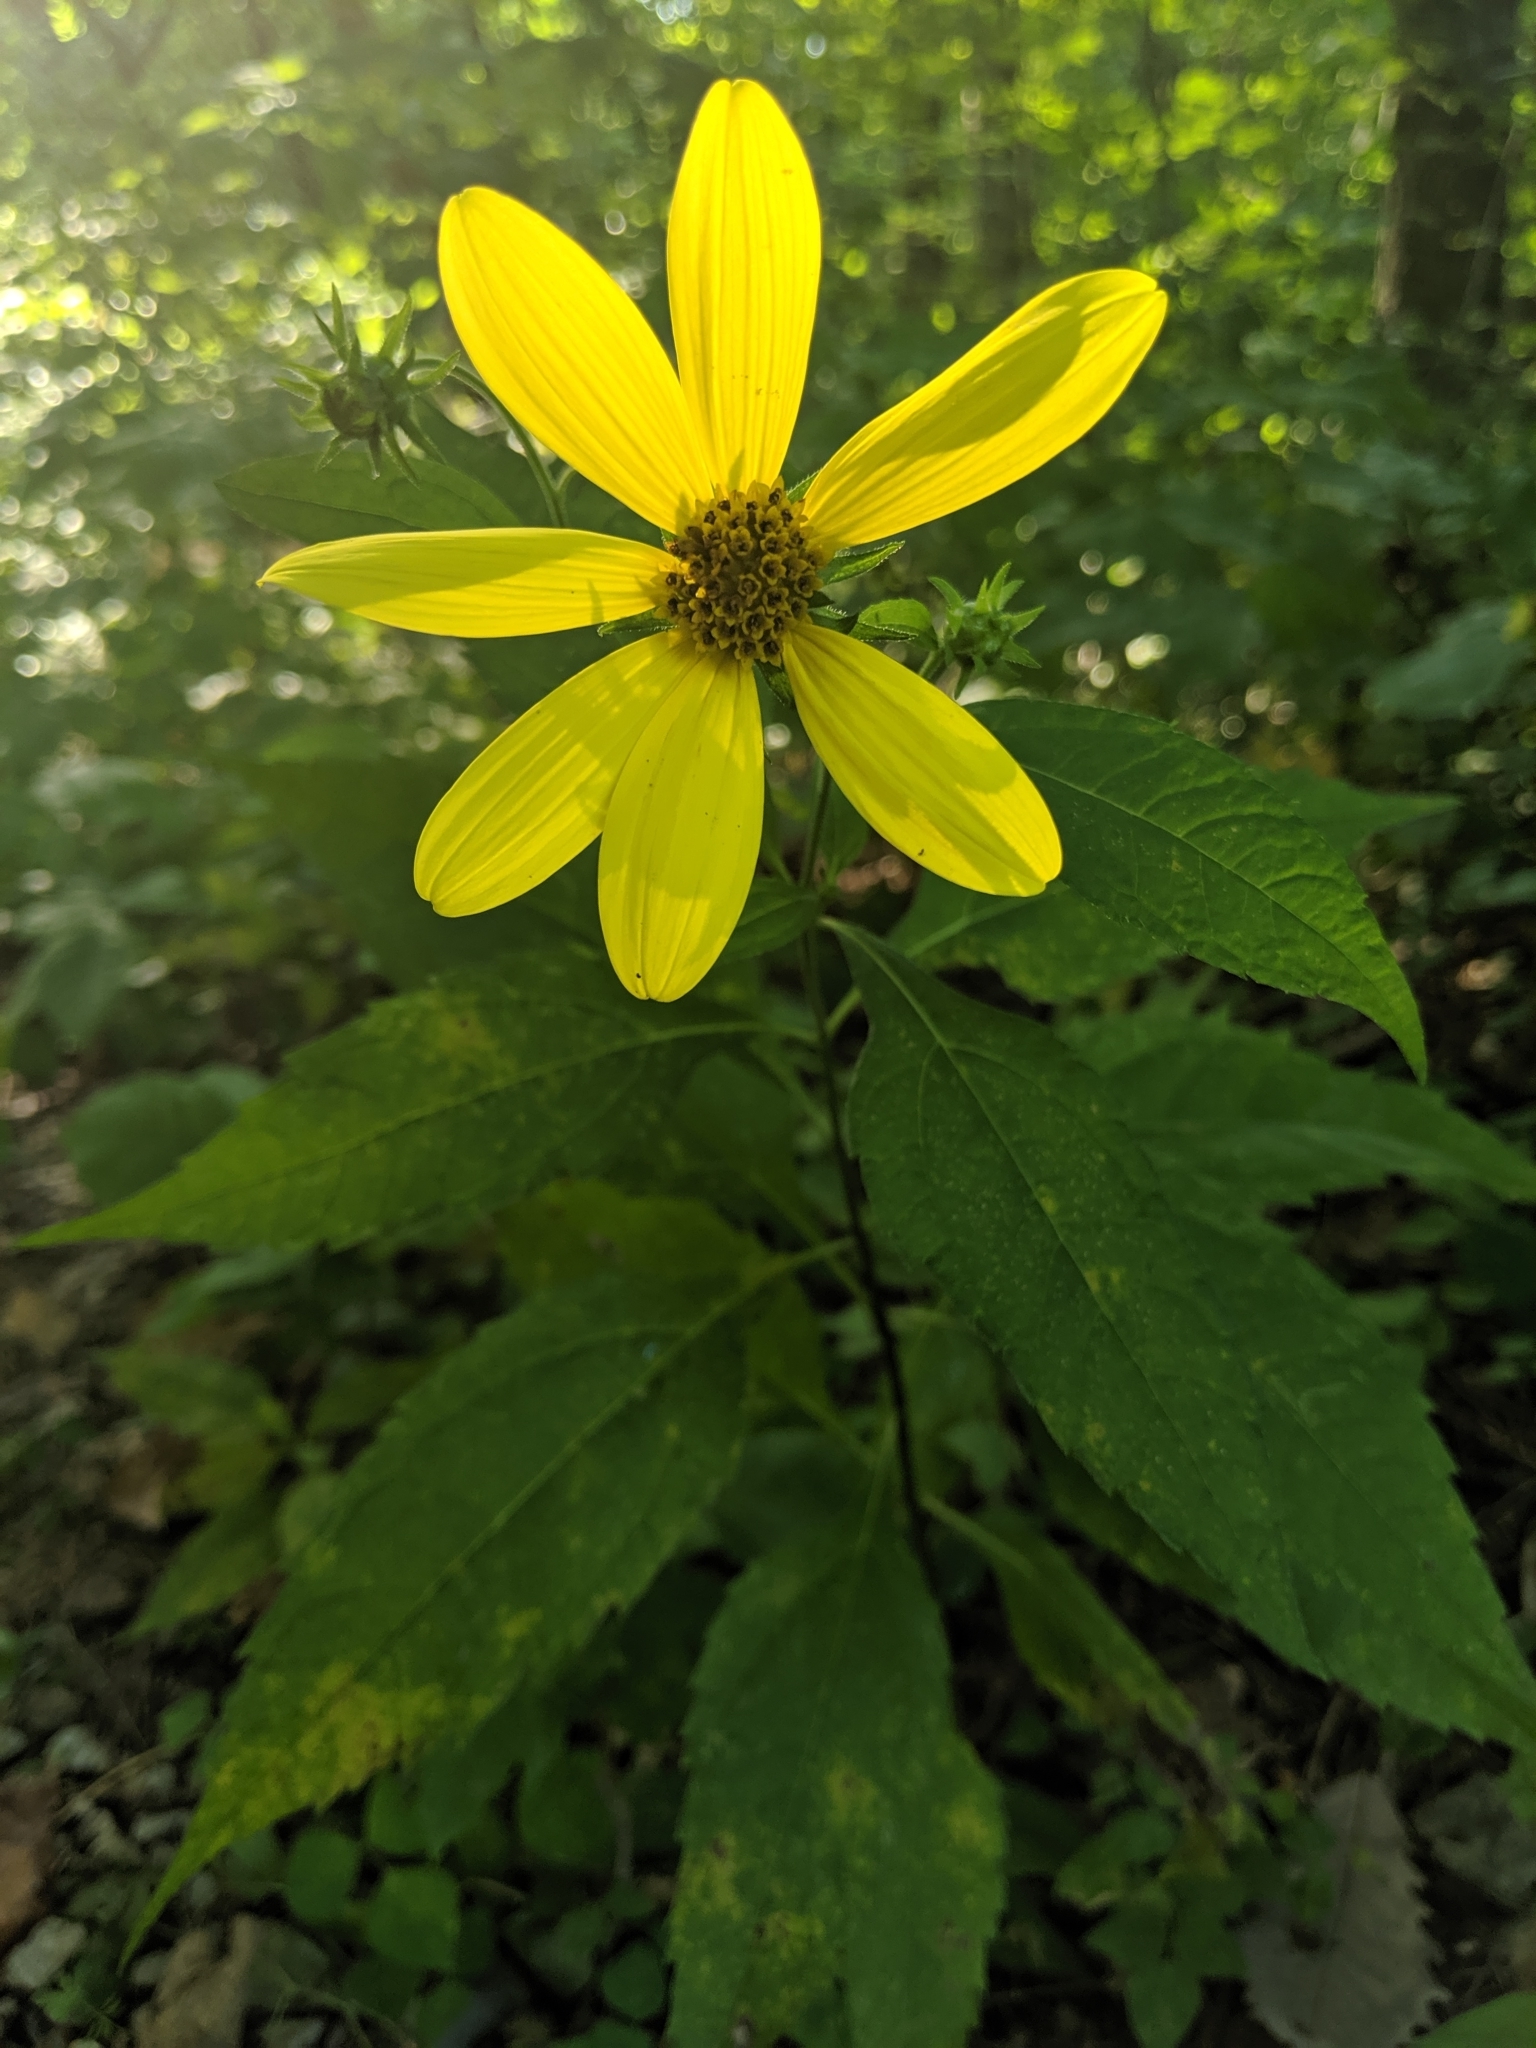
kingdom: Plantae
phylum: Tracheophyta
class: Magnoliopsida
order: Asterales
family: Asteraceae
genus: Helianthus
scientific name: Helianthus tuberosus
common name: Jerusalem artichoke
